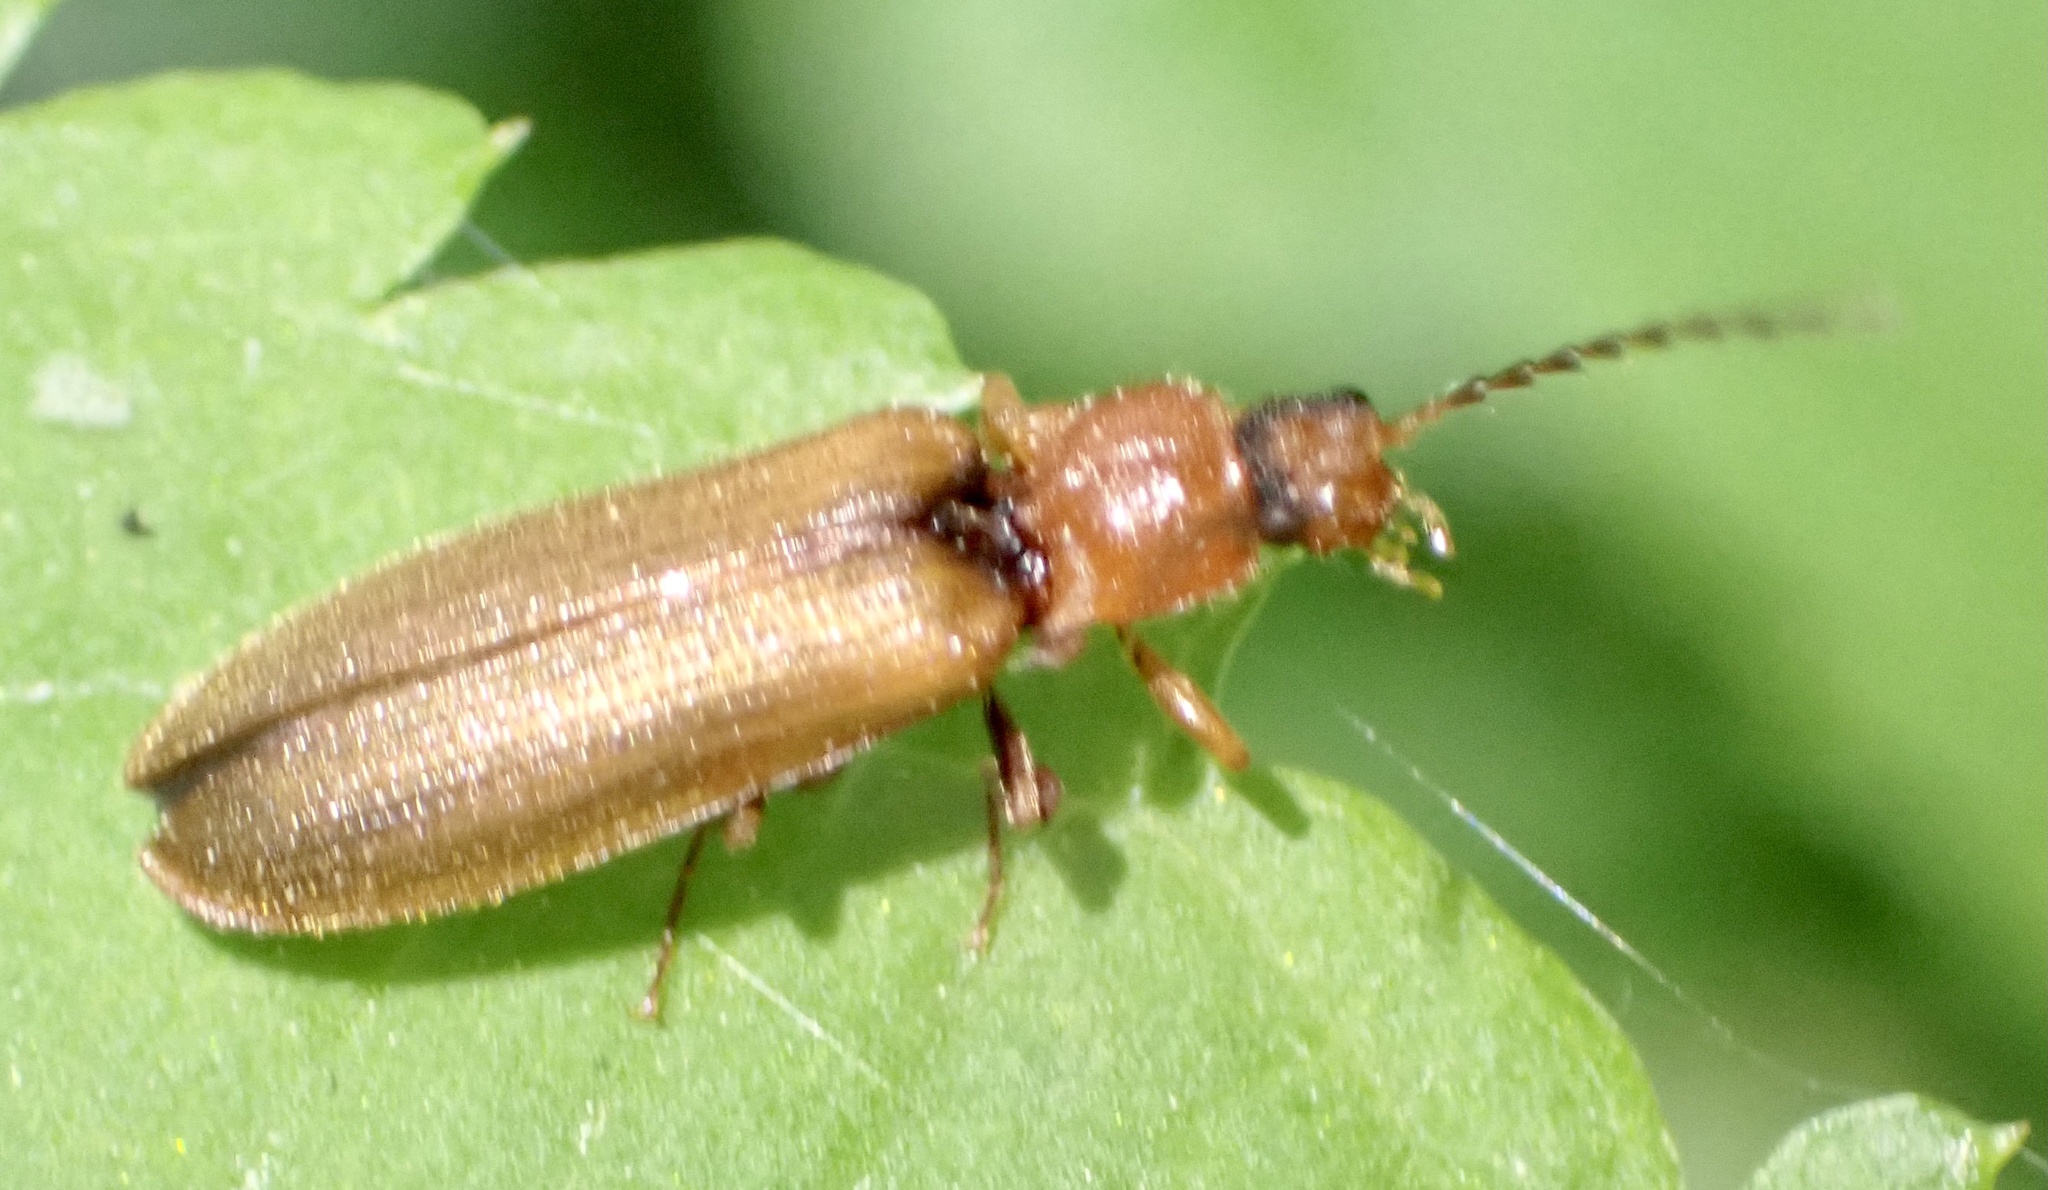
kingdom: Animalia
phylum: Arthropoda
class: Insecta
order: Coleoptera
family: Elateridae
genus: Denticollis
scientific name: Denticollis linearis
